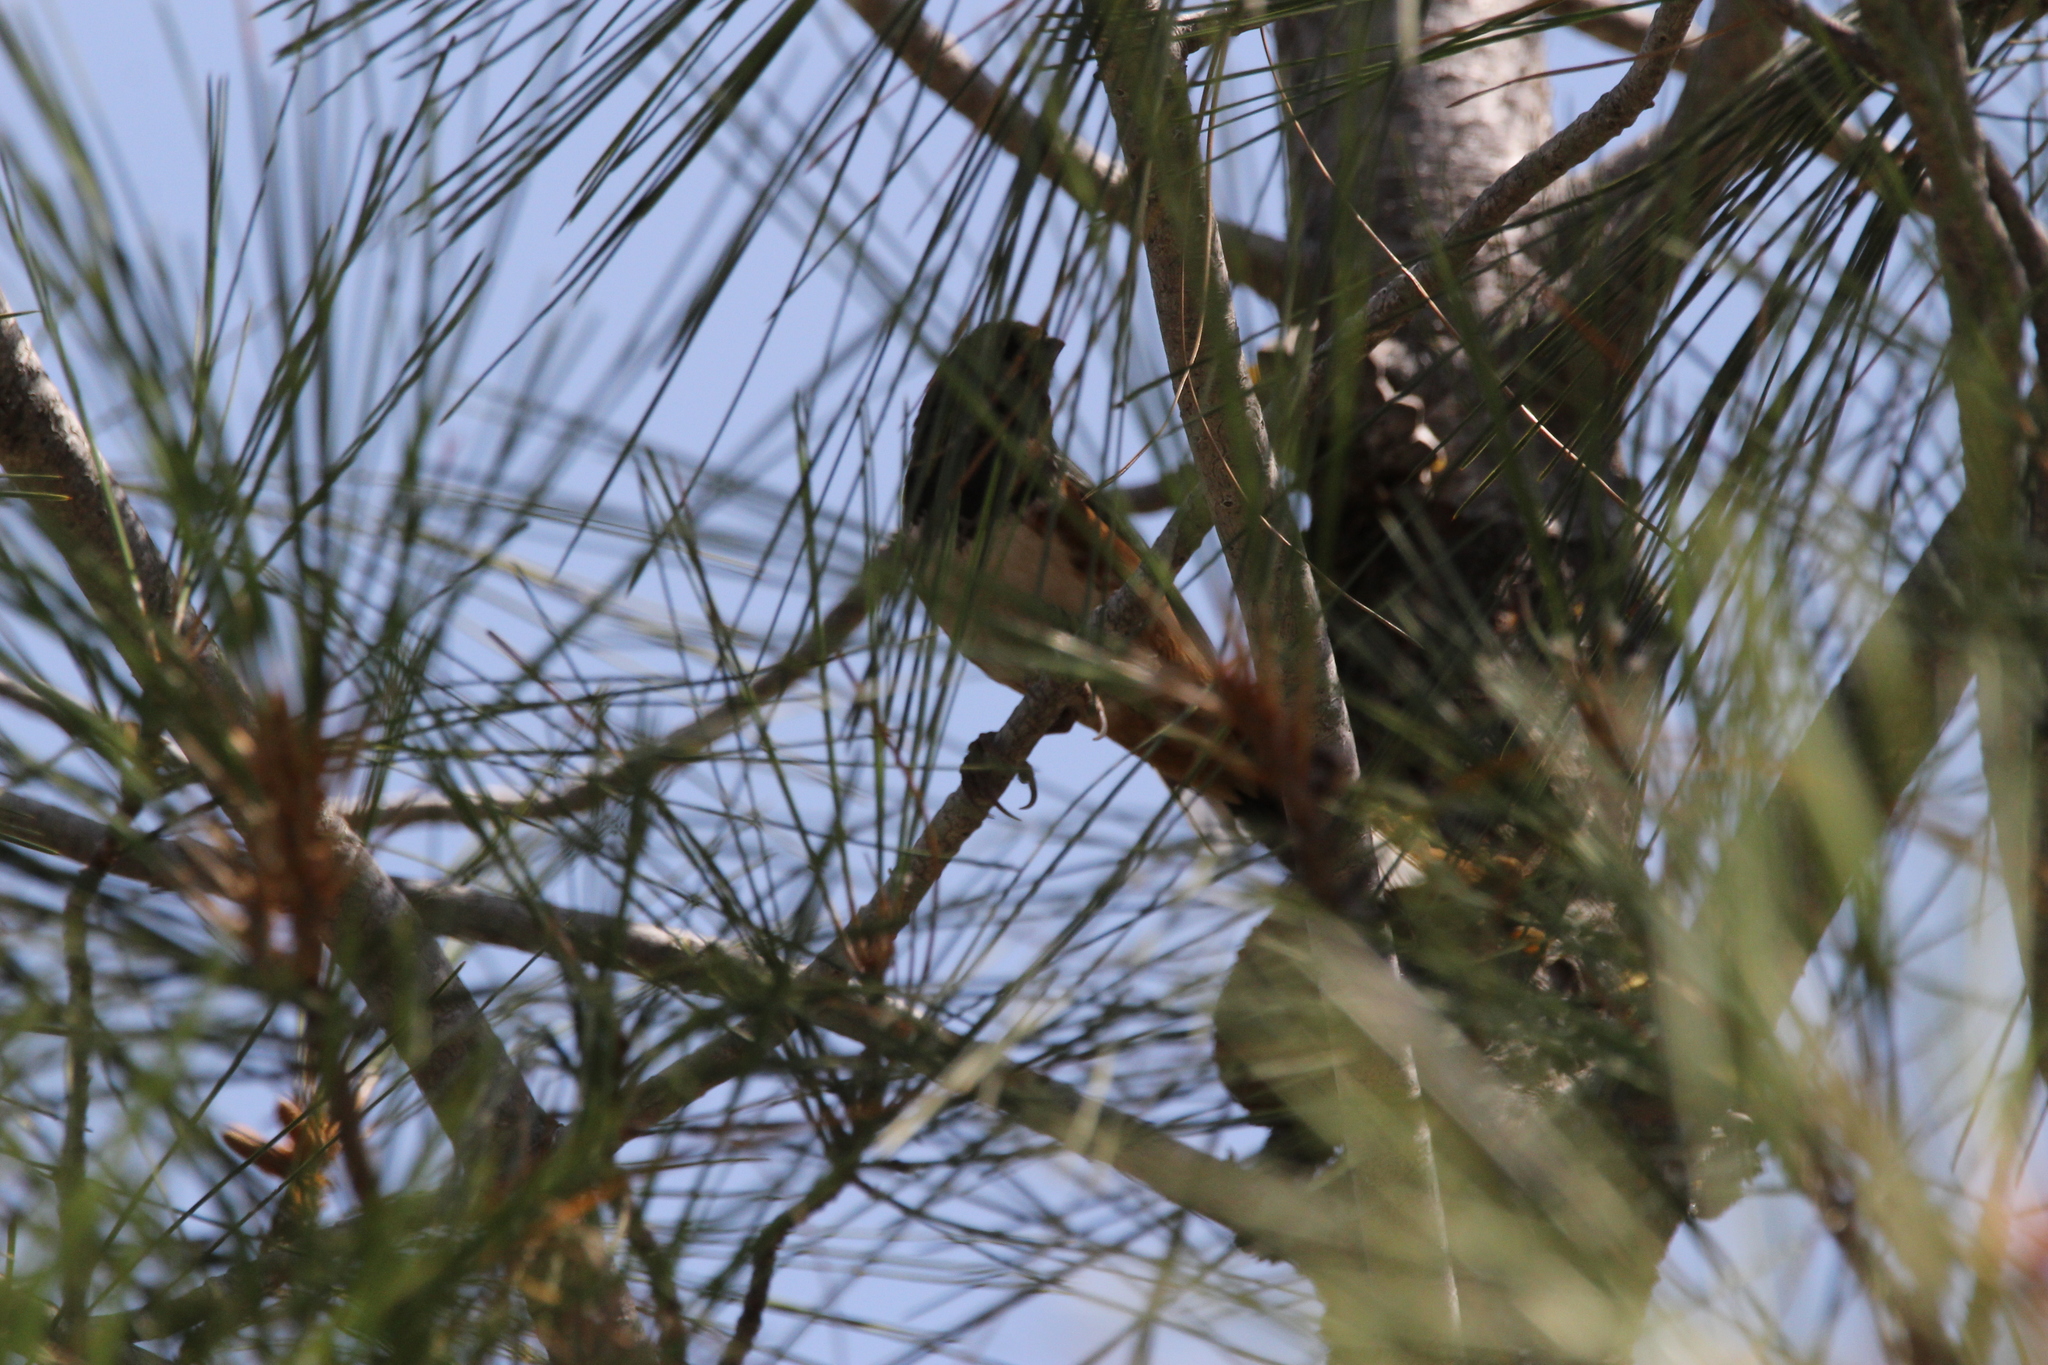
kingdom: Animalia
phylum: Chordata
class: Aves
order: Passeriformes
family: Passerellidae
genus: Pipilo
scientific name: Pipilo maculatus
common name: Spotted towhee
